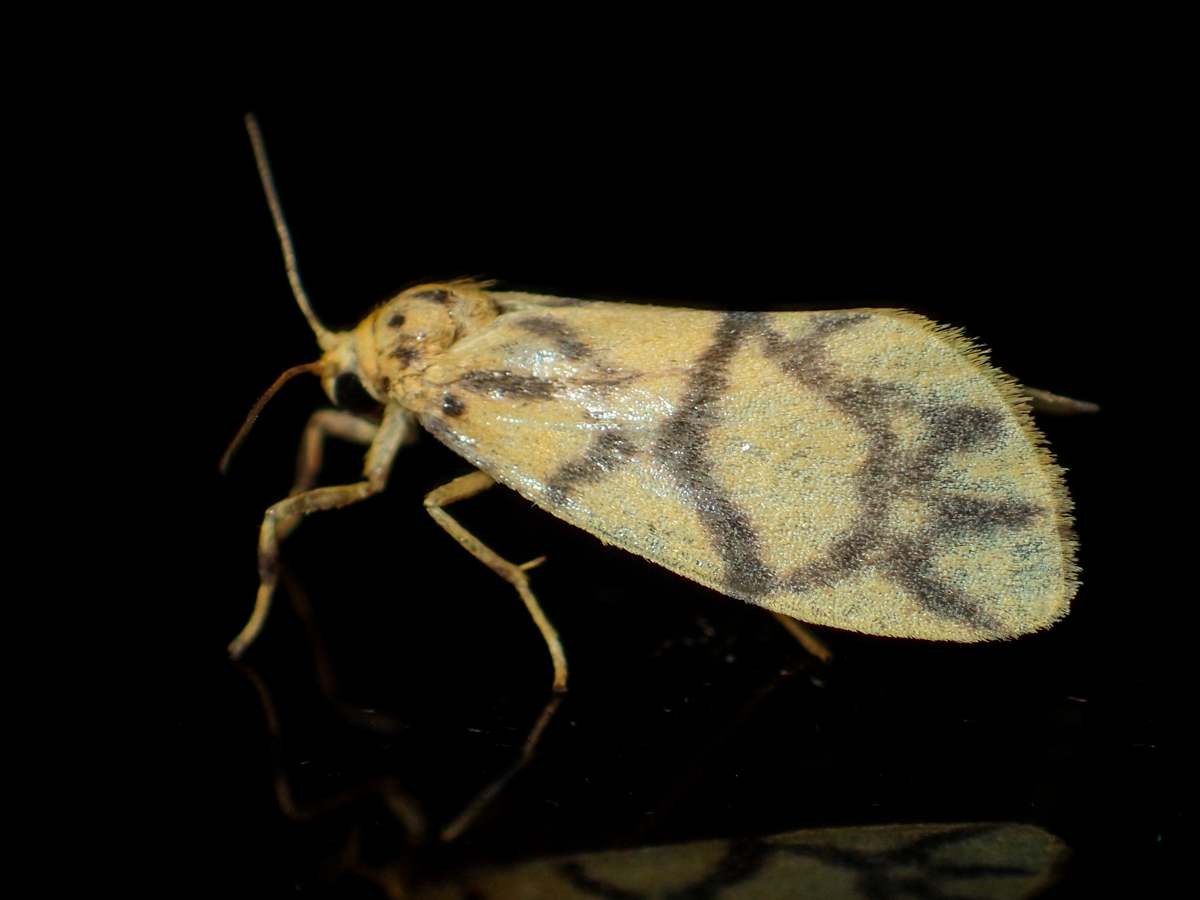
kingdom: Animalia
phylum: Arthropoda
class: Insecta
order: Lepidoptera
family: Erebidae
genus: Asura
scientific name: Asura toxodes
